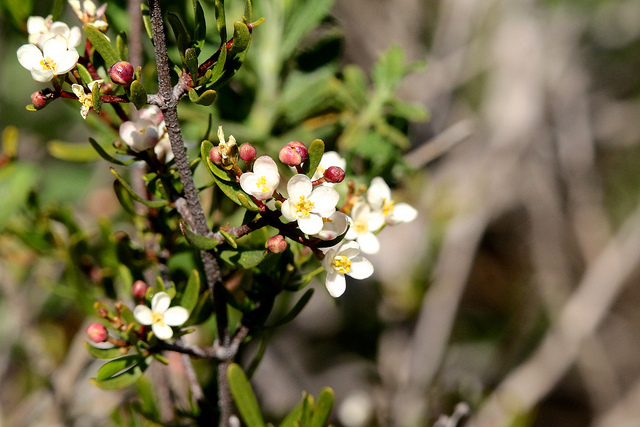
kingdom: Plantae
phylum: Tracheophyta
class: Magnoliopsida
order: Sapindales
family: Rutaceae
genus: Cneoridium
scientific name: Cneoridium dumosum
